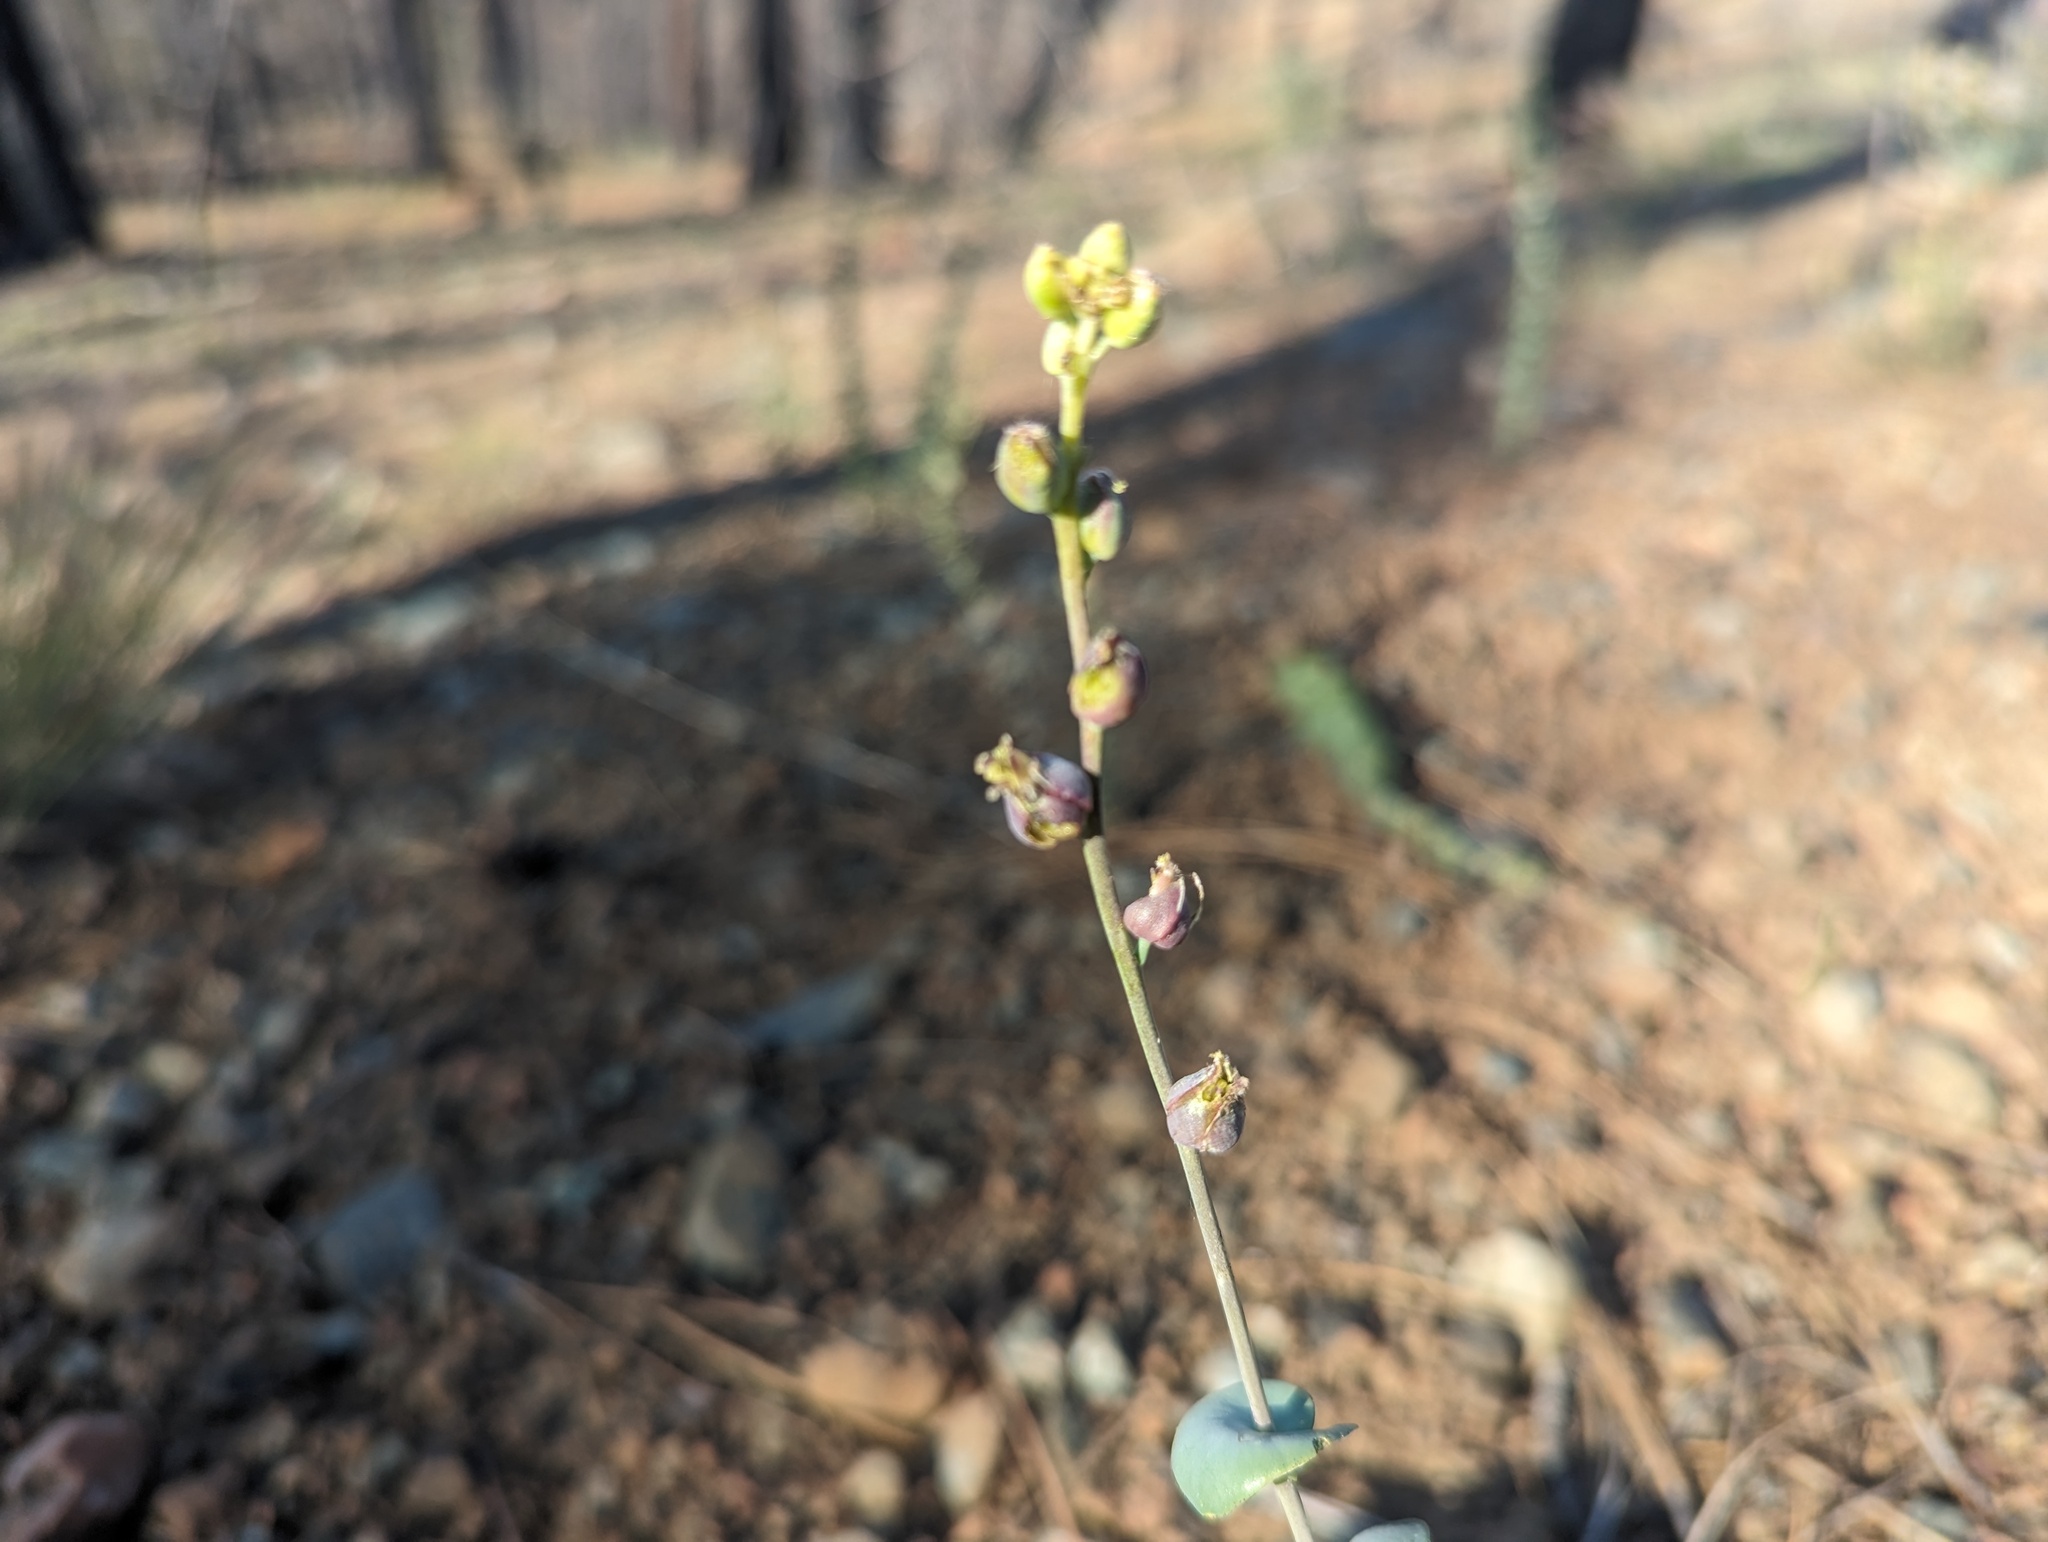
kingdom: Plantae
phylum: Tracheophyta
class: Magnoliopsida
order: Brassicales
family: Brassicaceae
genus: Streptanthus
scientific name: Streptanthus barbatus
